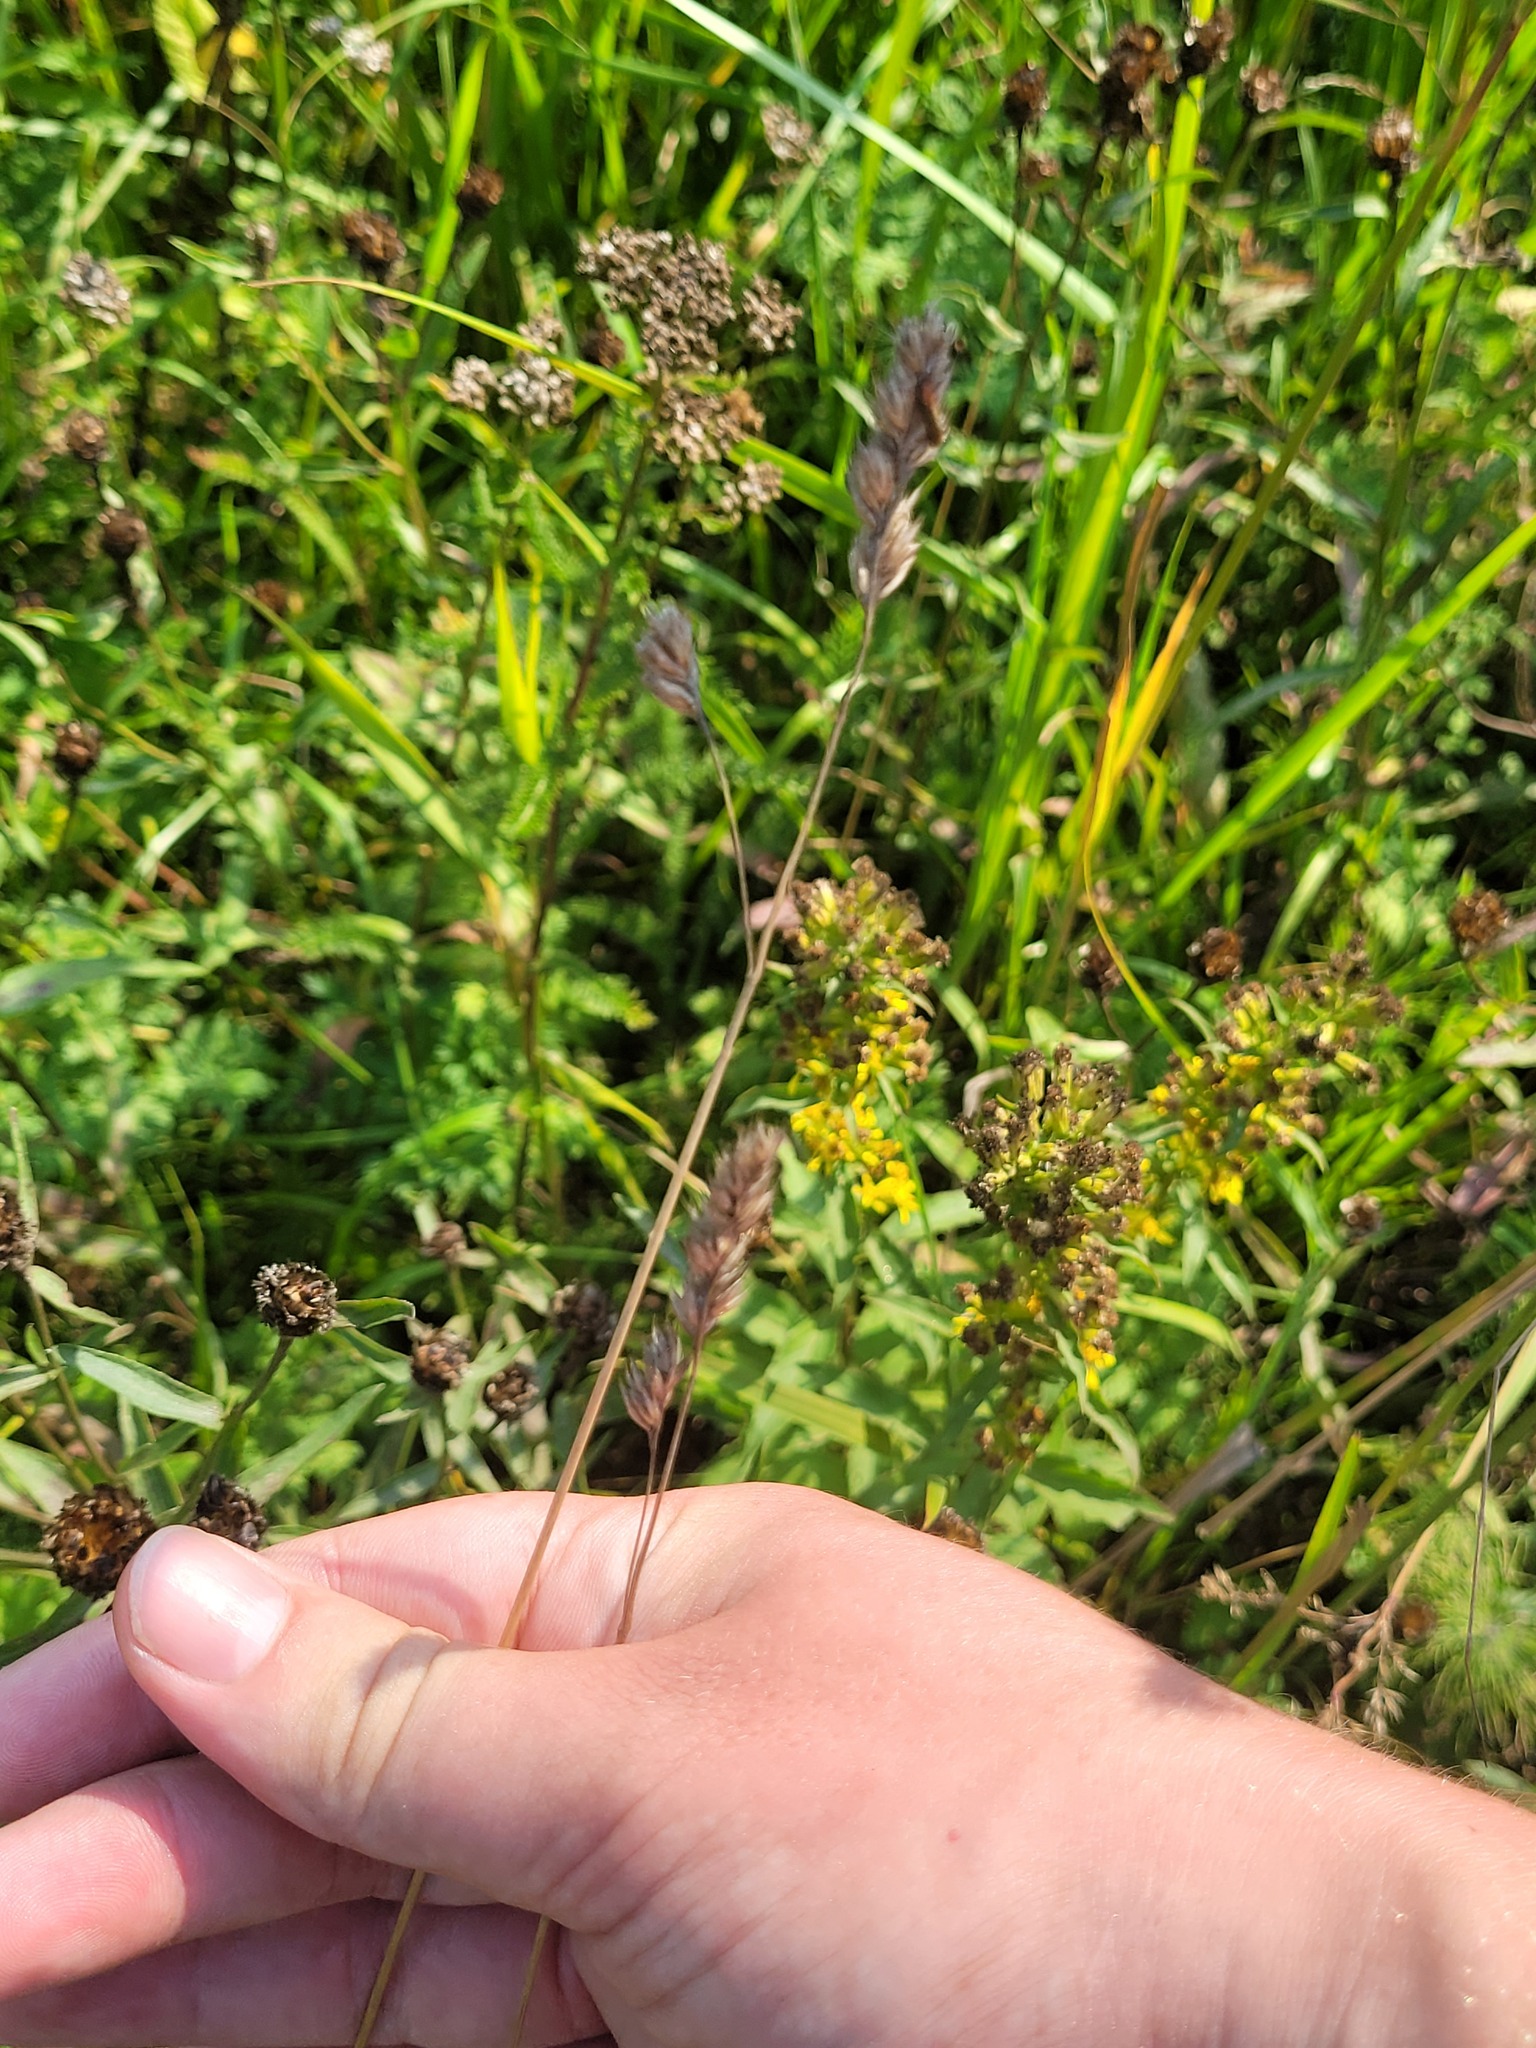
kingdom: Plantae
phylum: Tracheophyta
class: Liliopsida
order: Poales
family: Poaceae
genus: Dactylis
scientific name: Dactylis glomerata
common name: Orchardgrass
